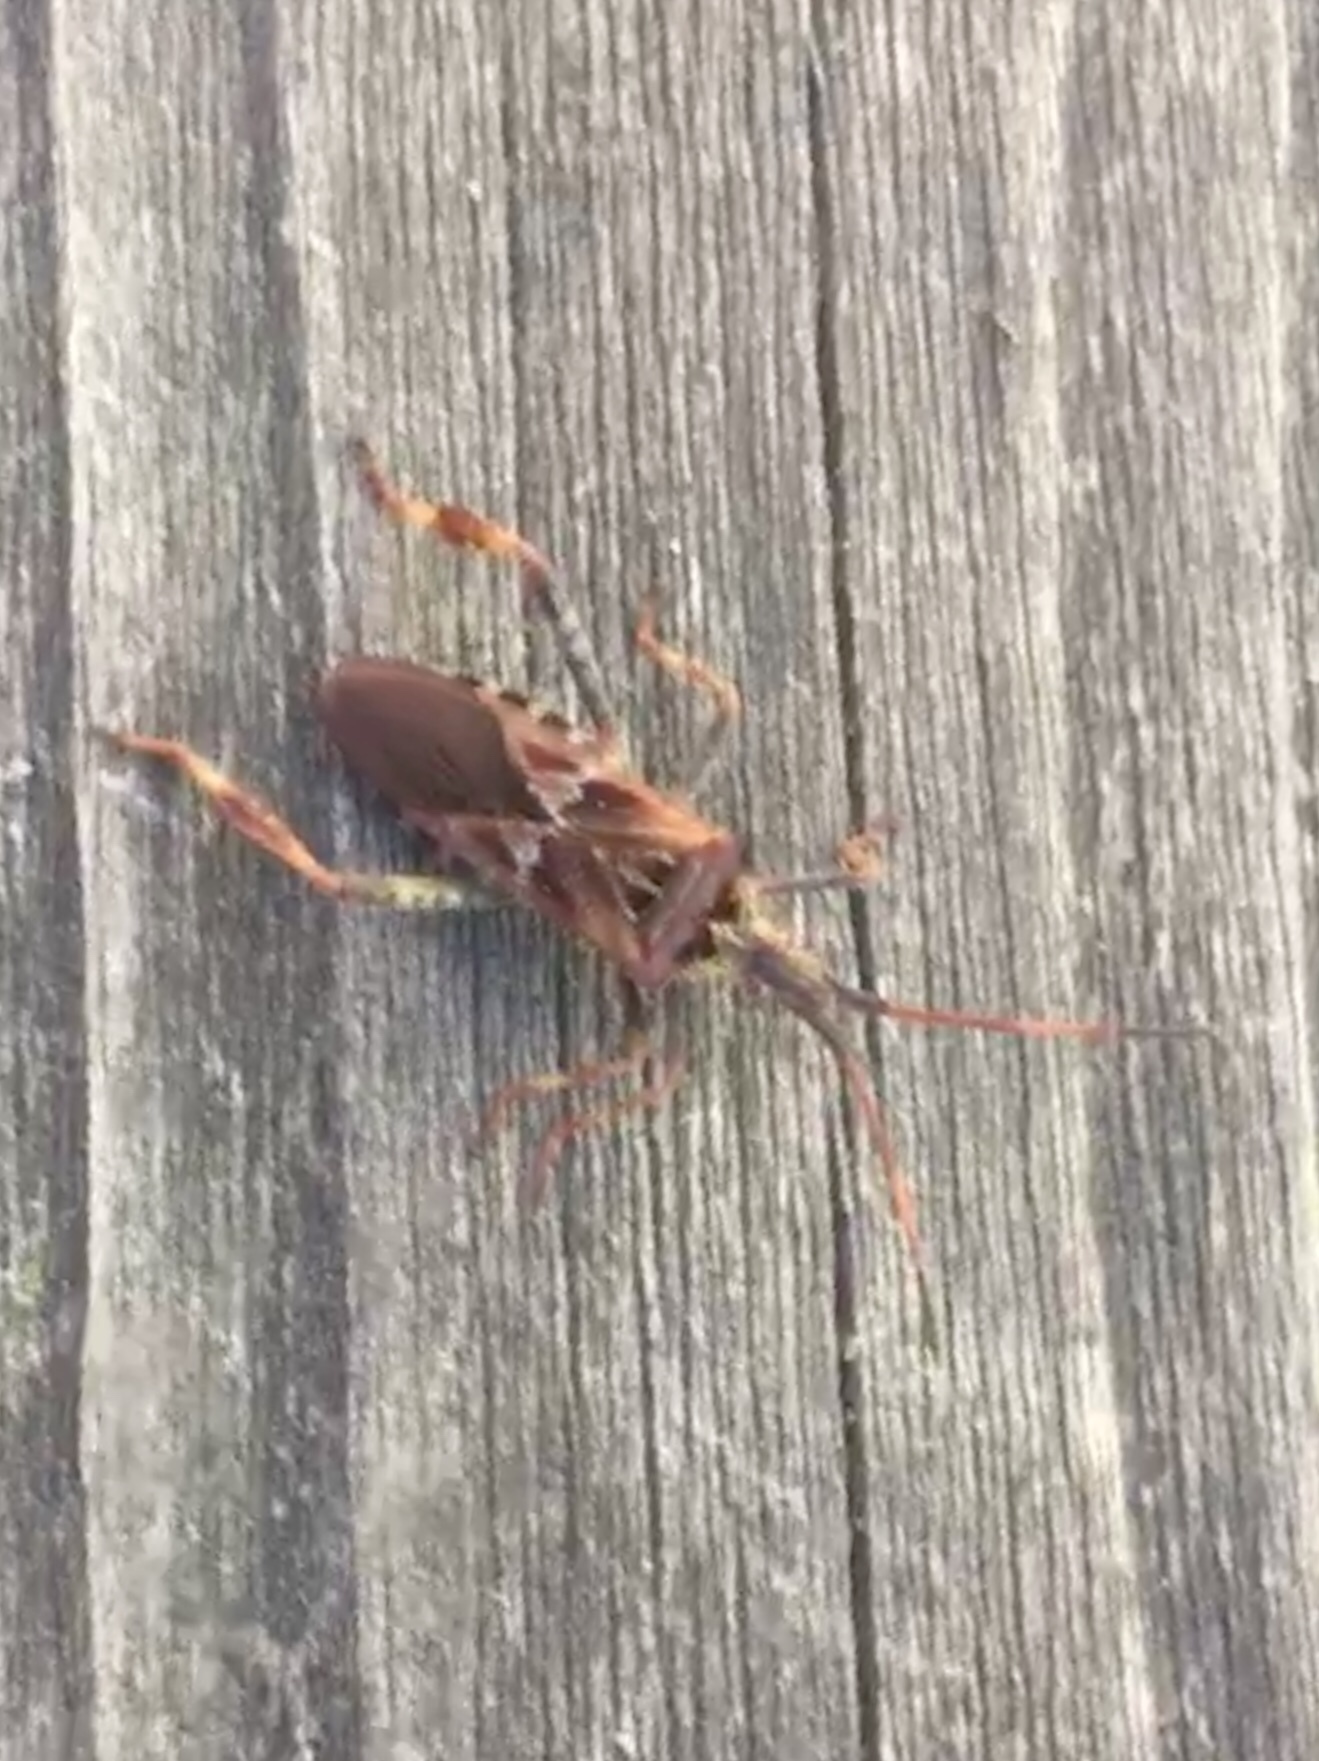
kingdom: Animalia
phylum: Arthropoda
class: Insecta
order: Hemiptera
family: Coreidae
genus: Leptoglossus
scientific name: Leptoglossus occidentalis
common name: Western conifer-seed bug
